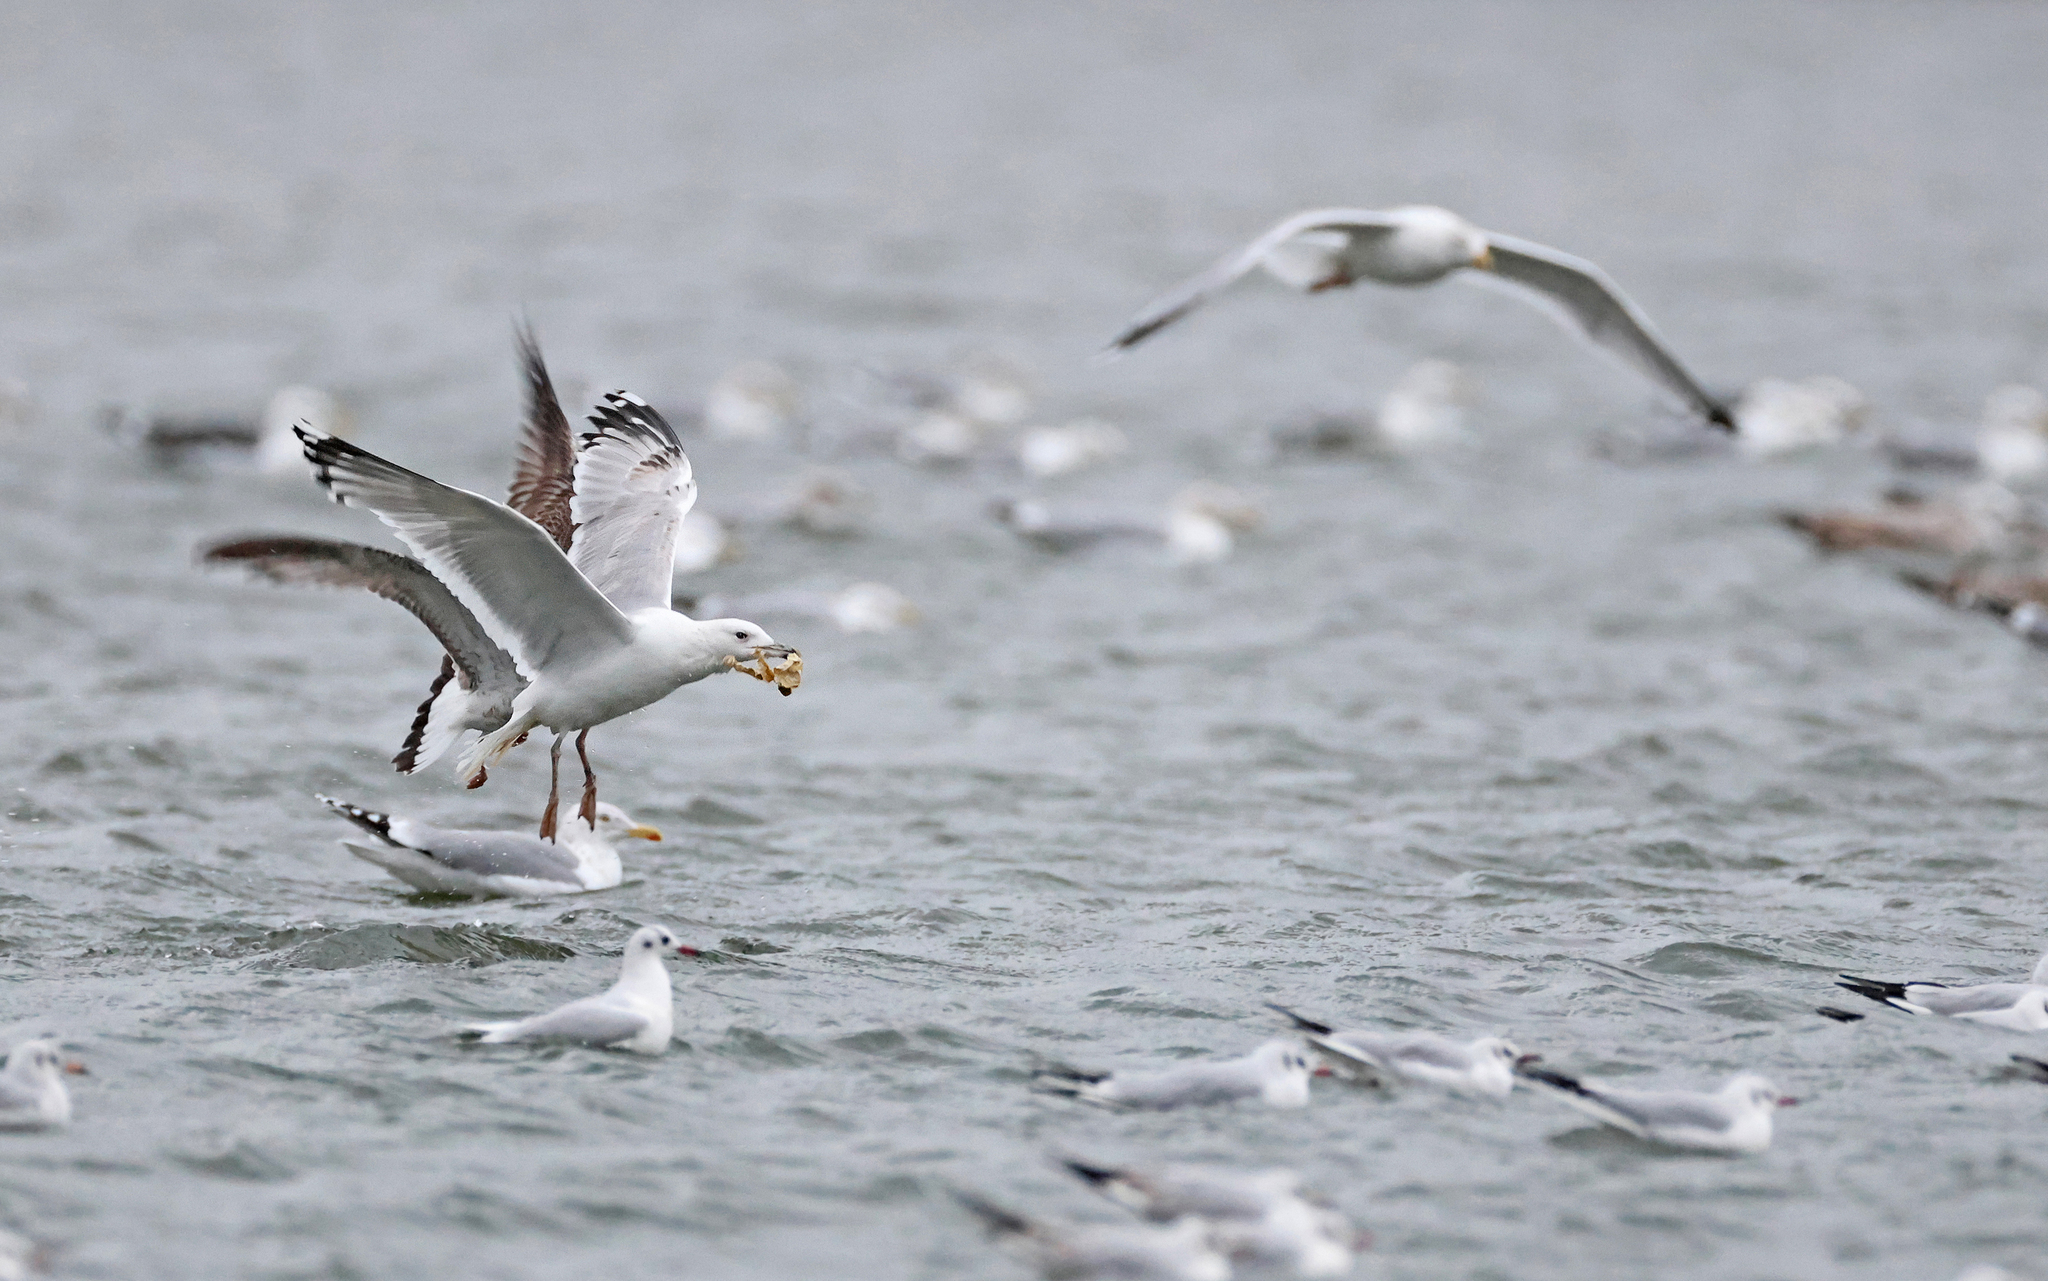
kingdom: Animalia
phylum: Chordata
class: Aves
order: Charadriiformes
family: Laridae
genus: Larus
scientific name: Larus cachinnans
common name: Caspian gull
